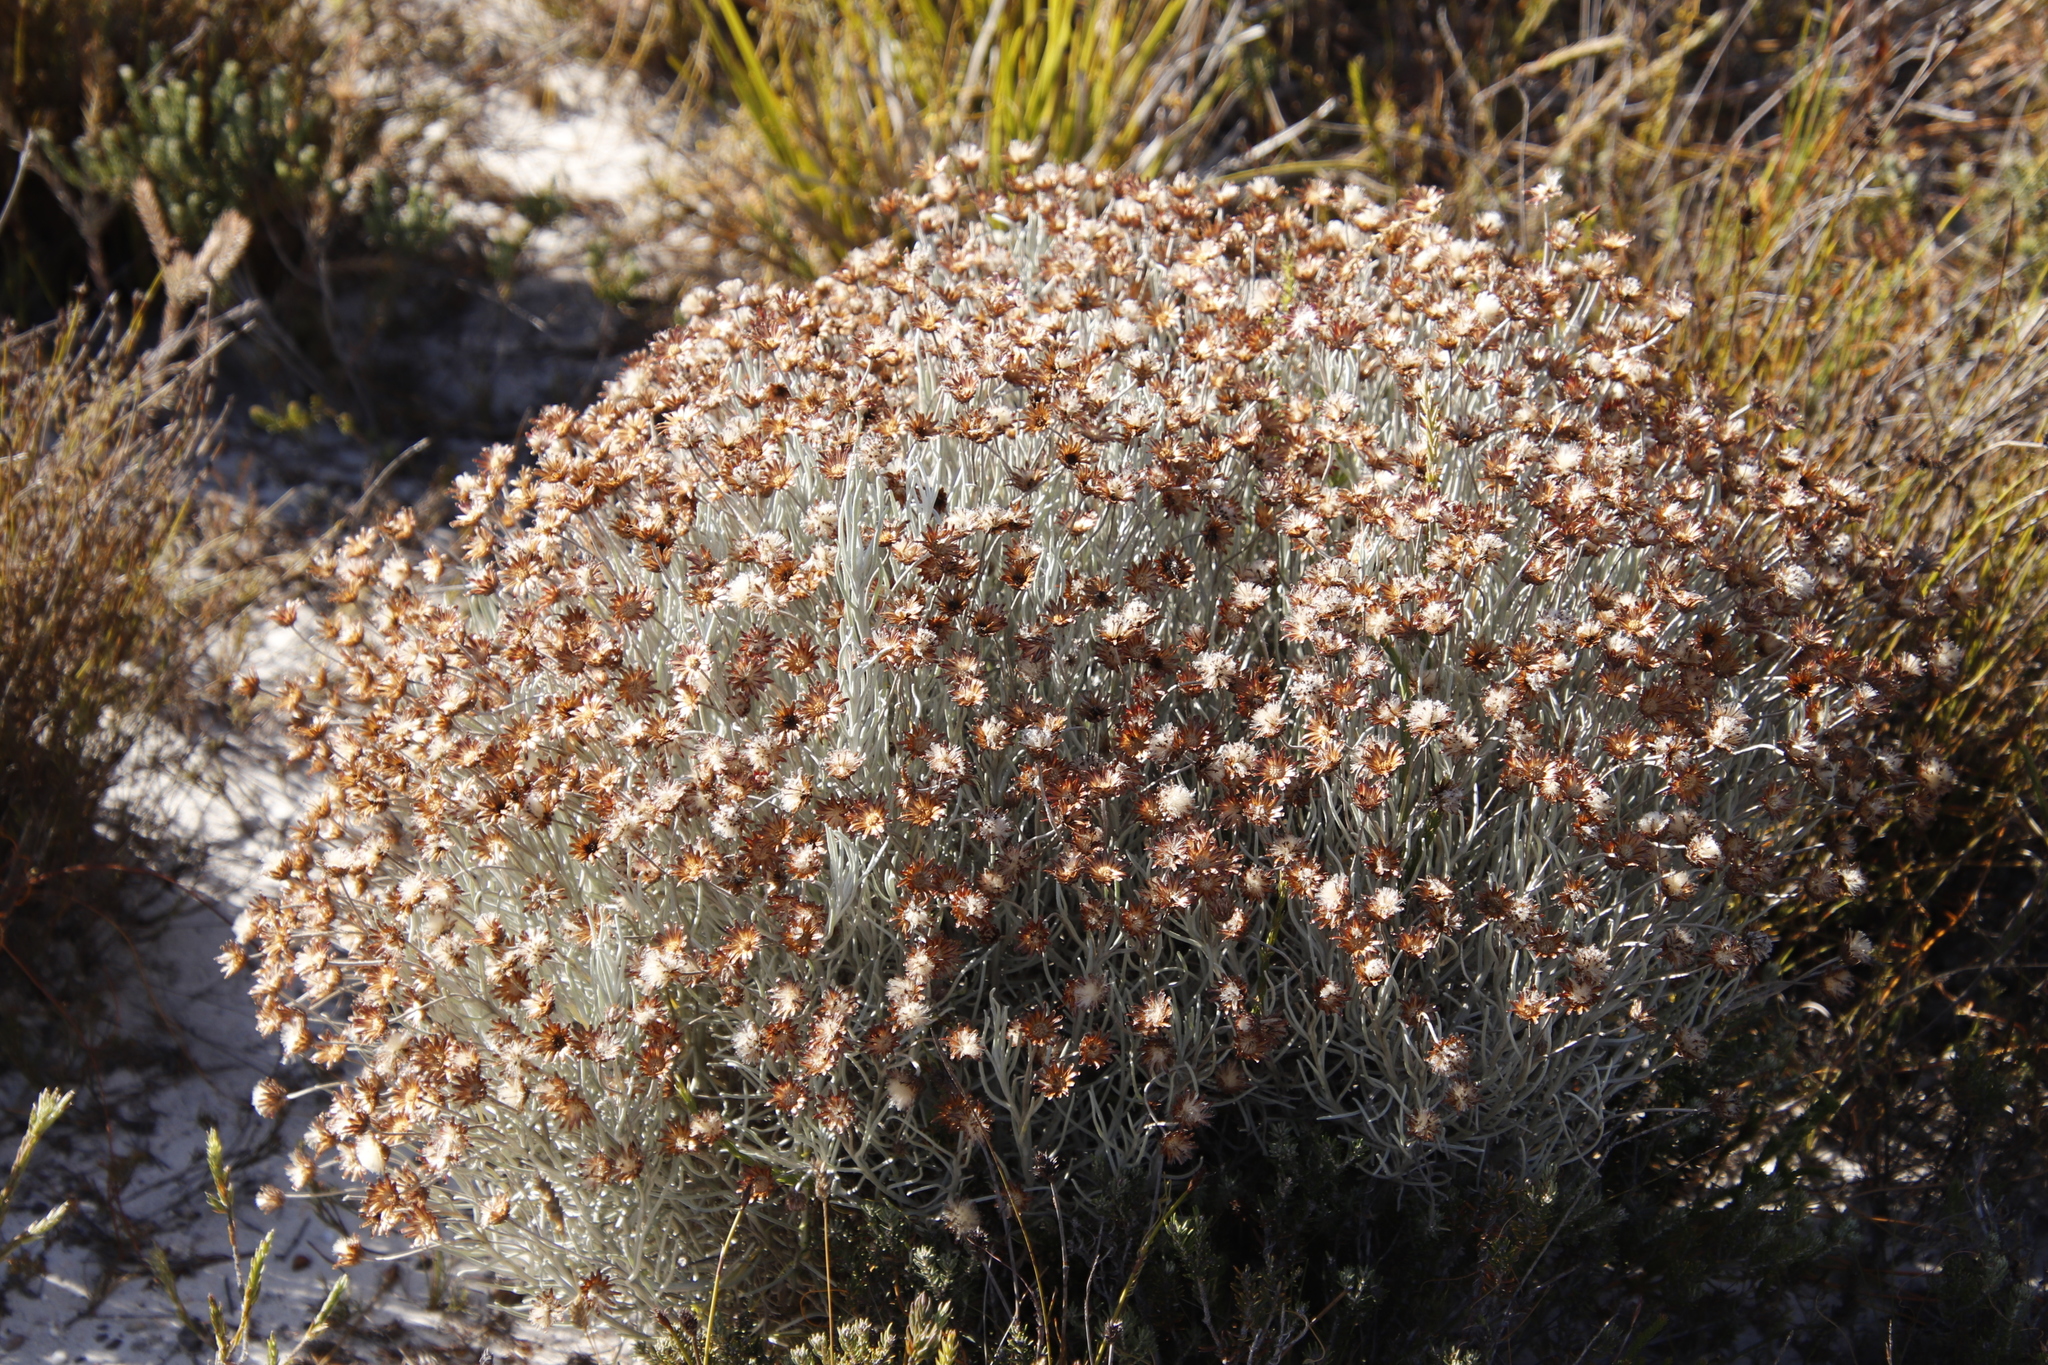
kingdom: Plantae
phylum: Tracheophyta
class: Magnoliopsida
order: Asterales
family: Asteraceae
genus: Syncarpha
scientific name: Syncarpha gnaphaloides
